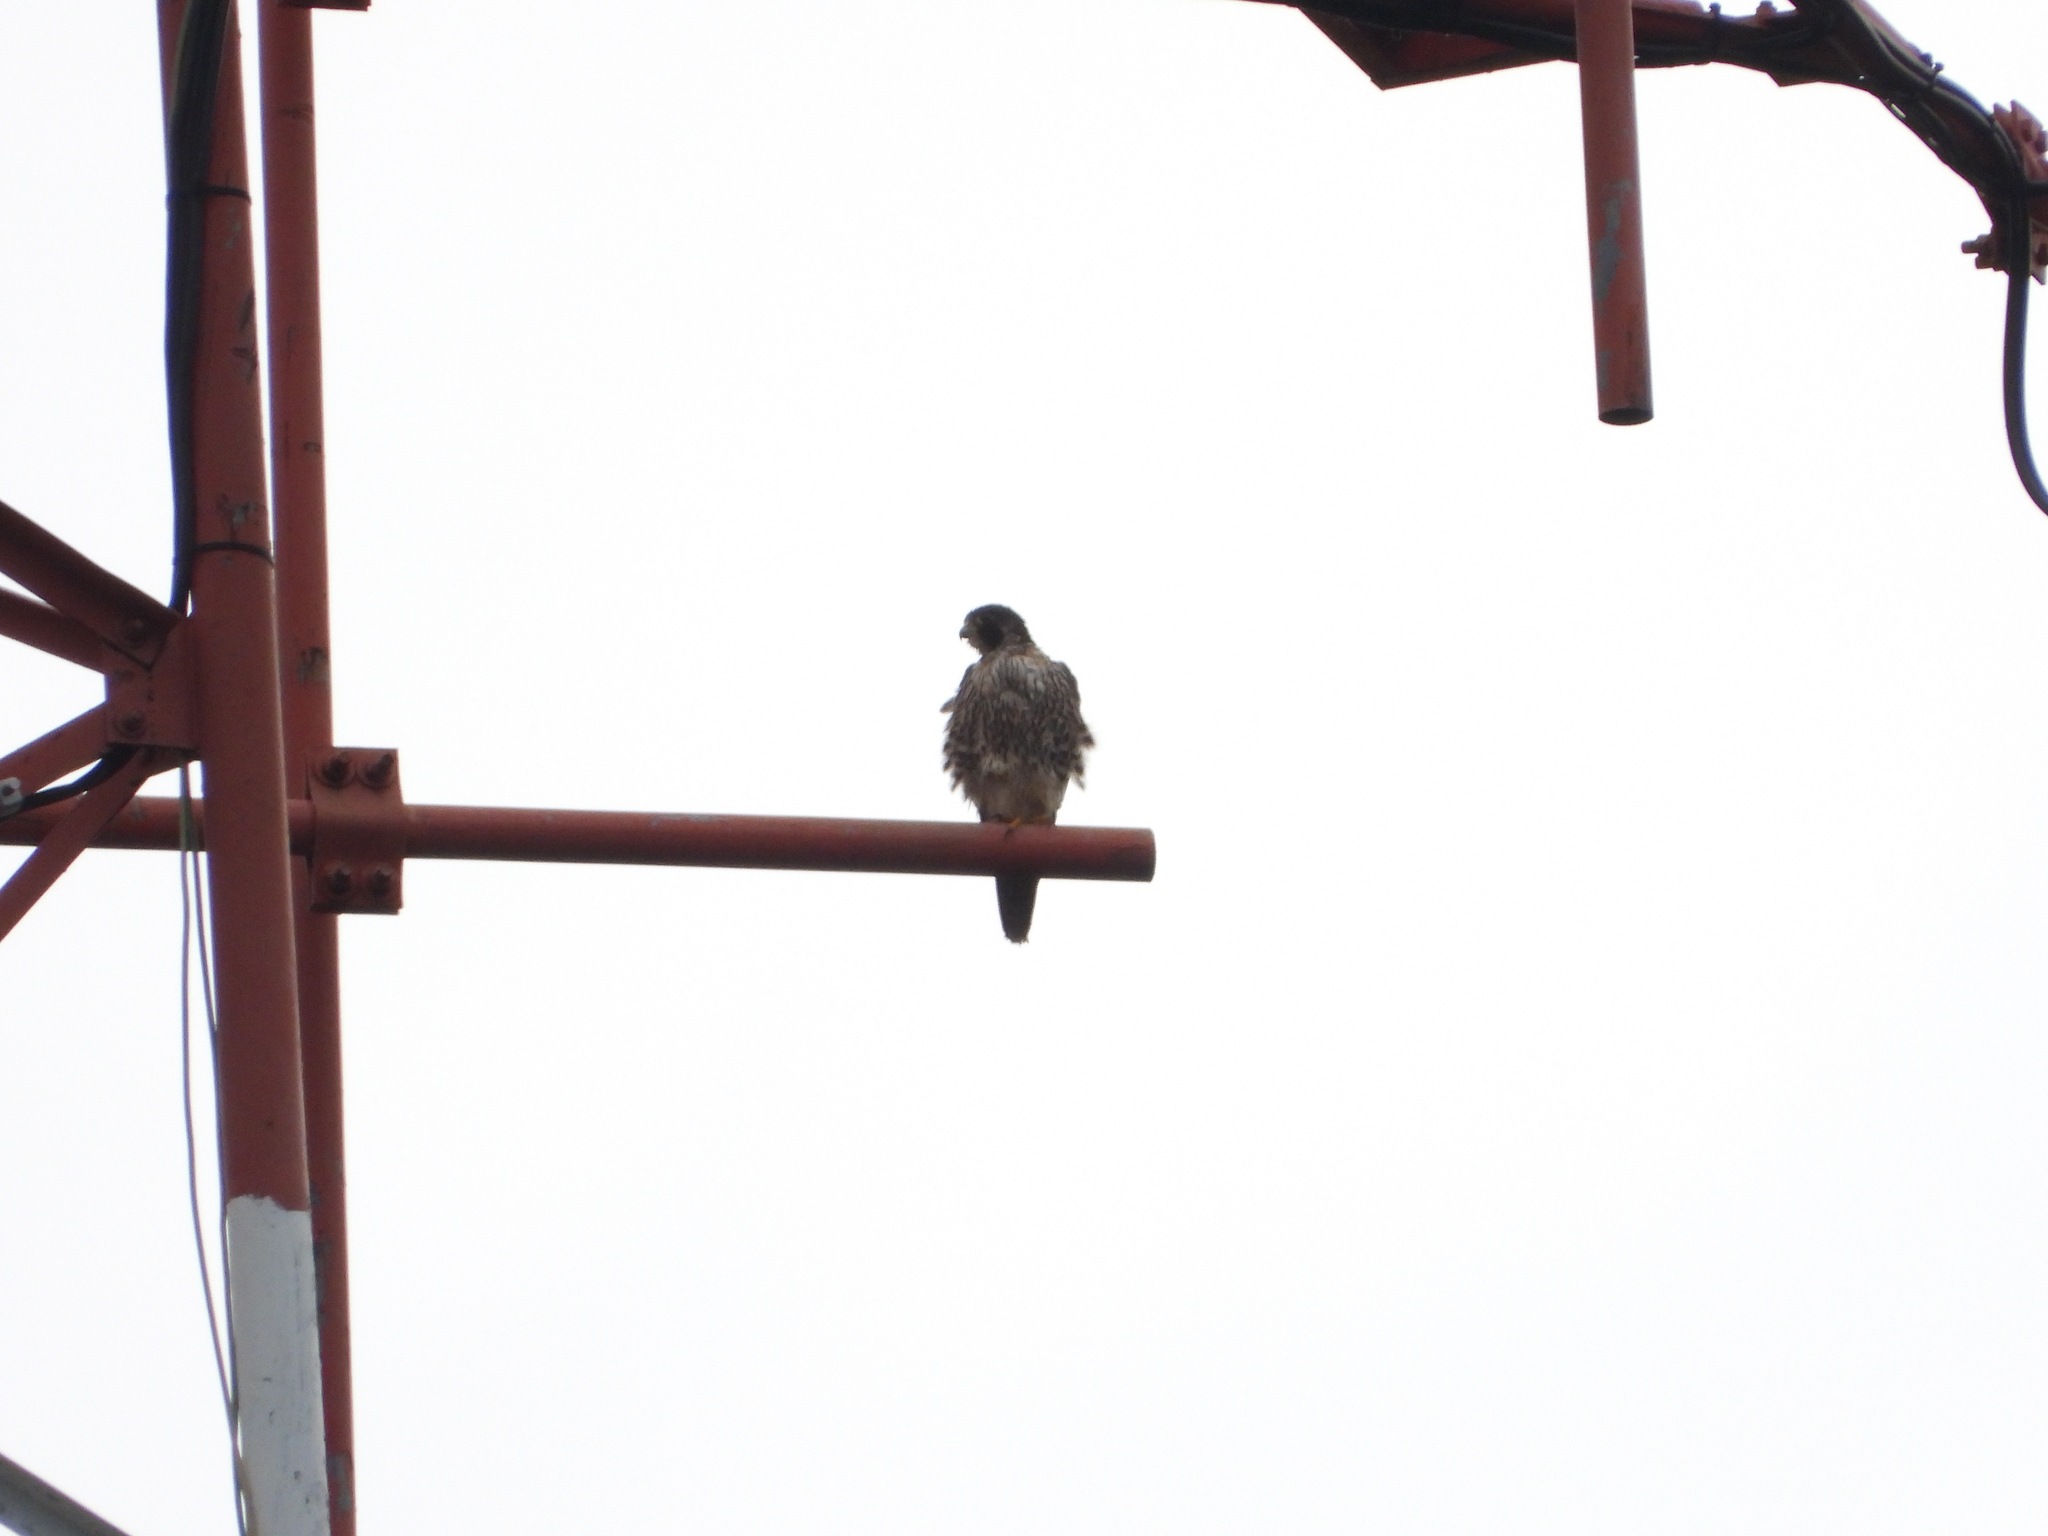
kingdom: Animalia
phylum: Chordata
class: Aves
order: Falconiformes
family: Falconidae
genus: Falco
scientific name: Falco peregrinus
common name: Peregrine falcon
